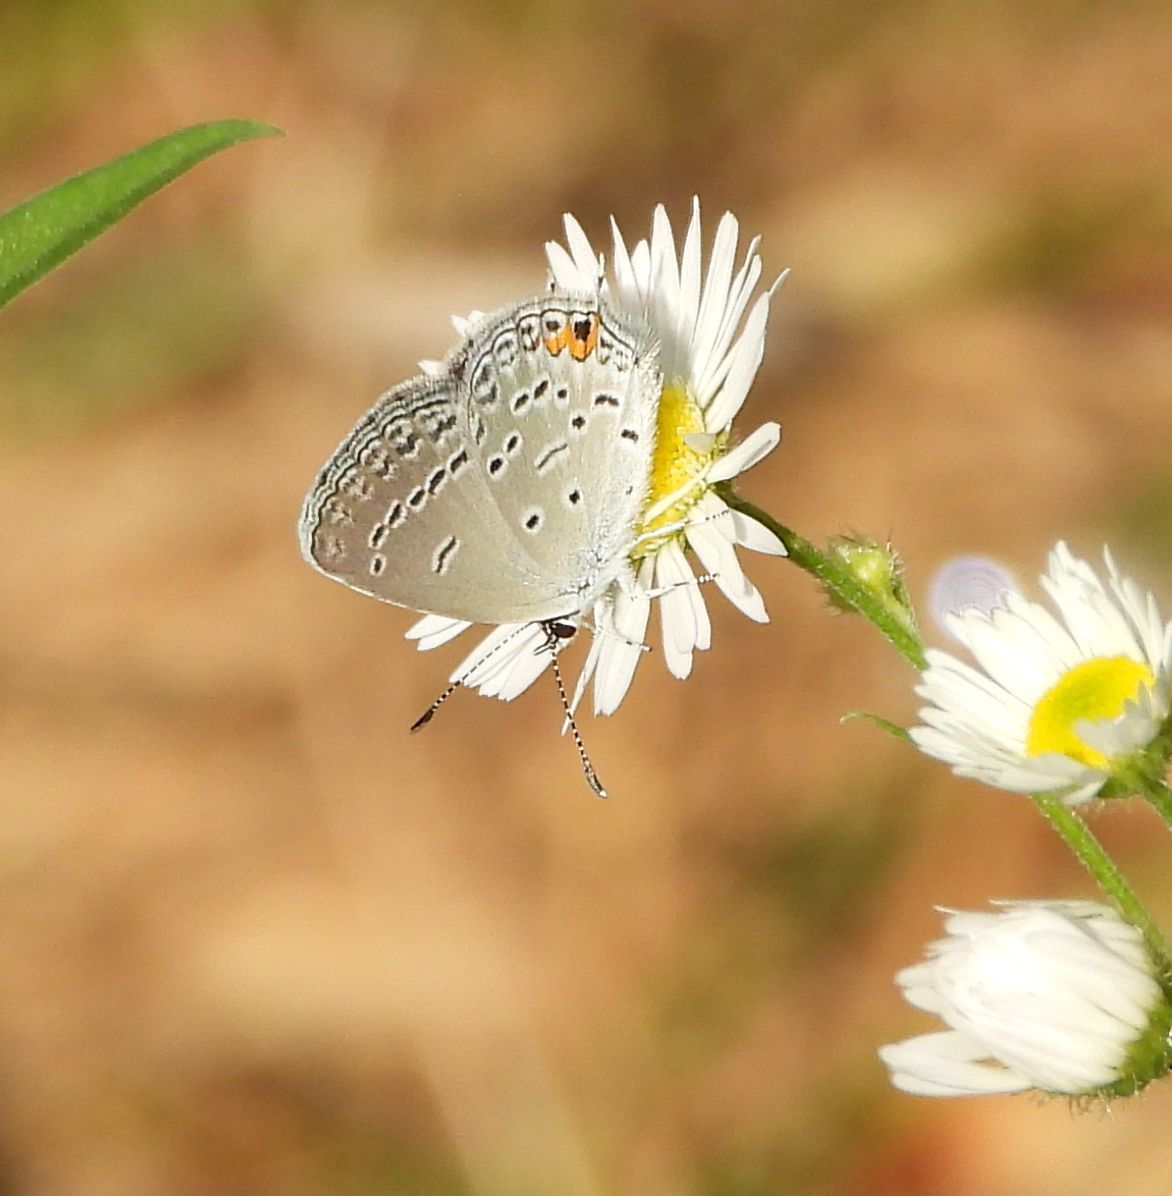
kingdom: Animalia
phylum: Arthropoda
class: Insecta
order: Lepidoptera
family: Lycaenidae
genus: Elkalyce
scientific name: Elkalyce comyntas
